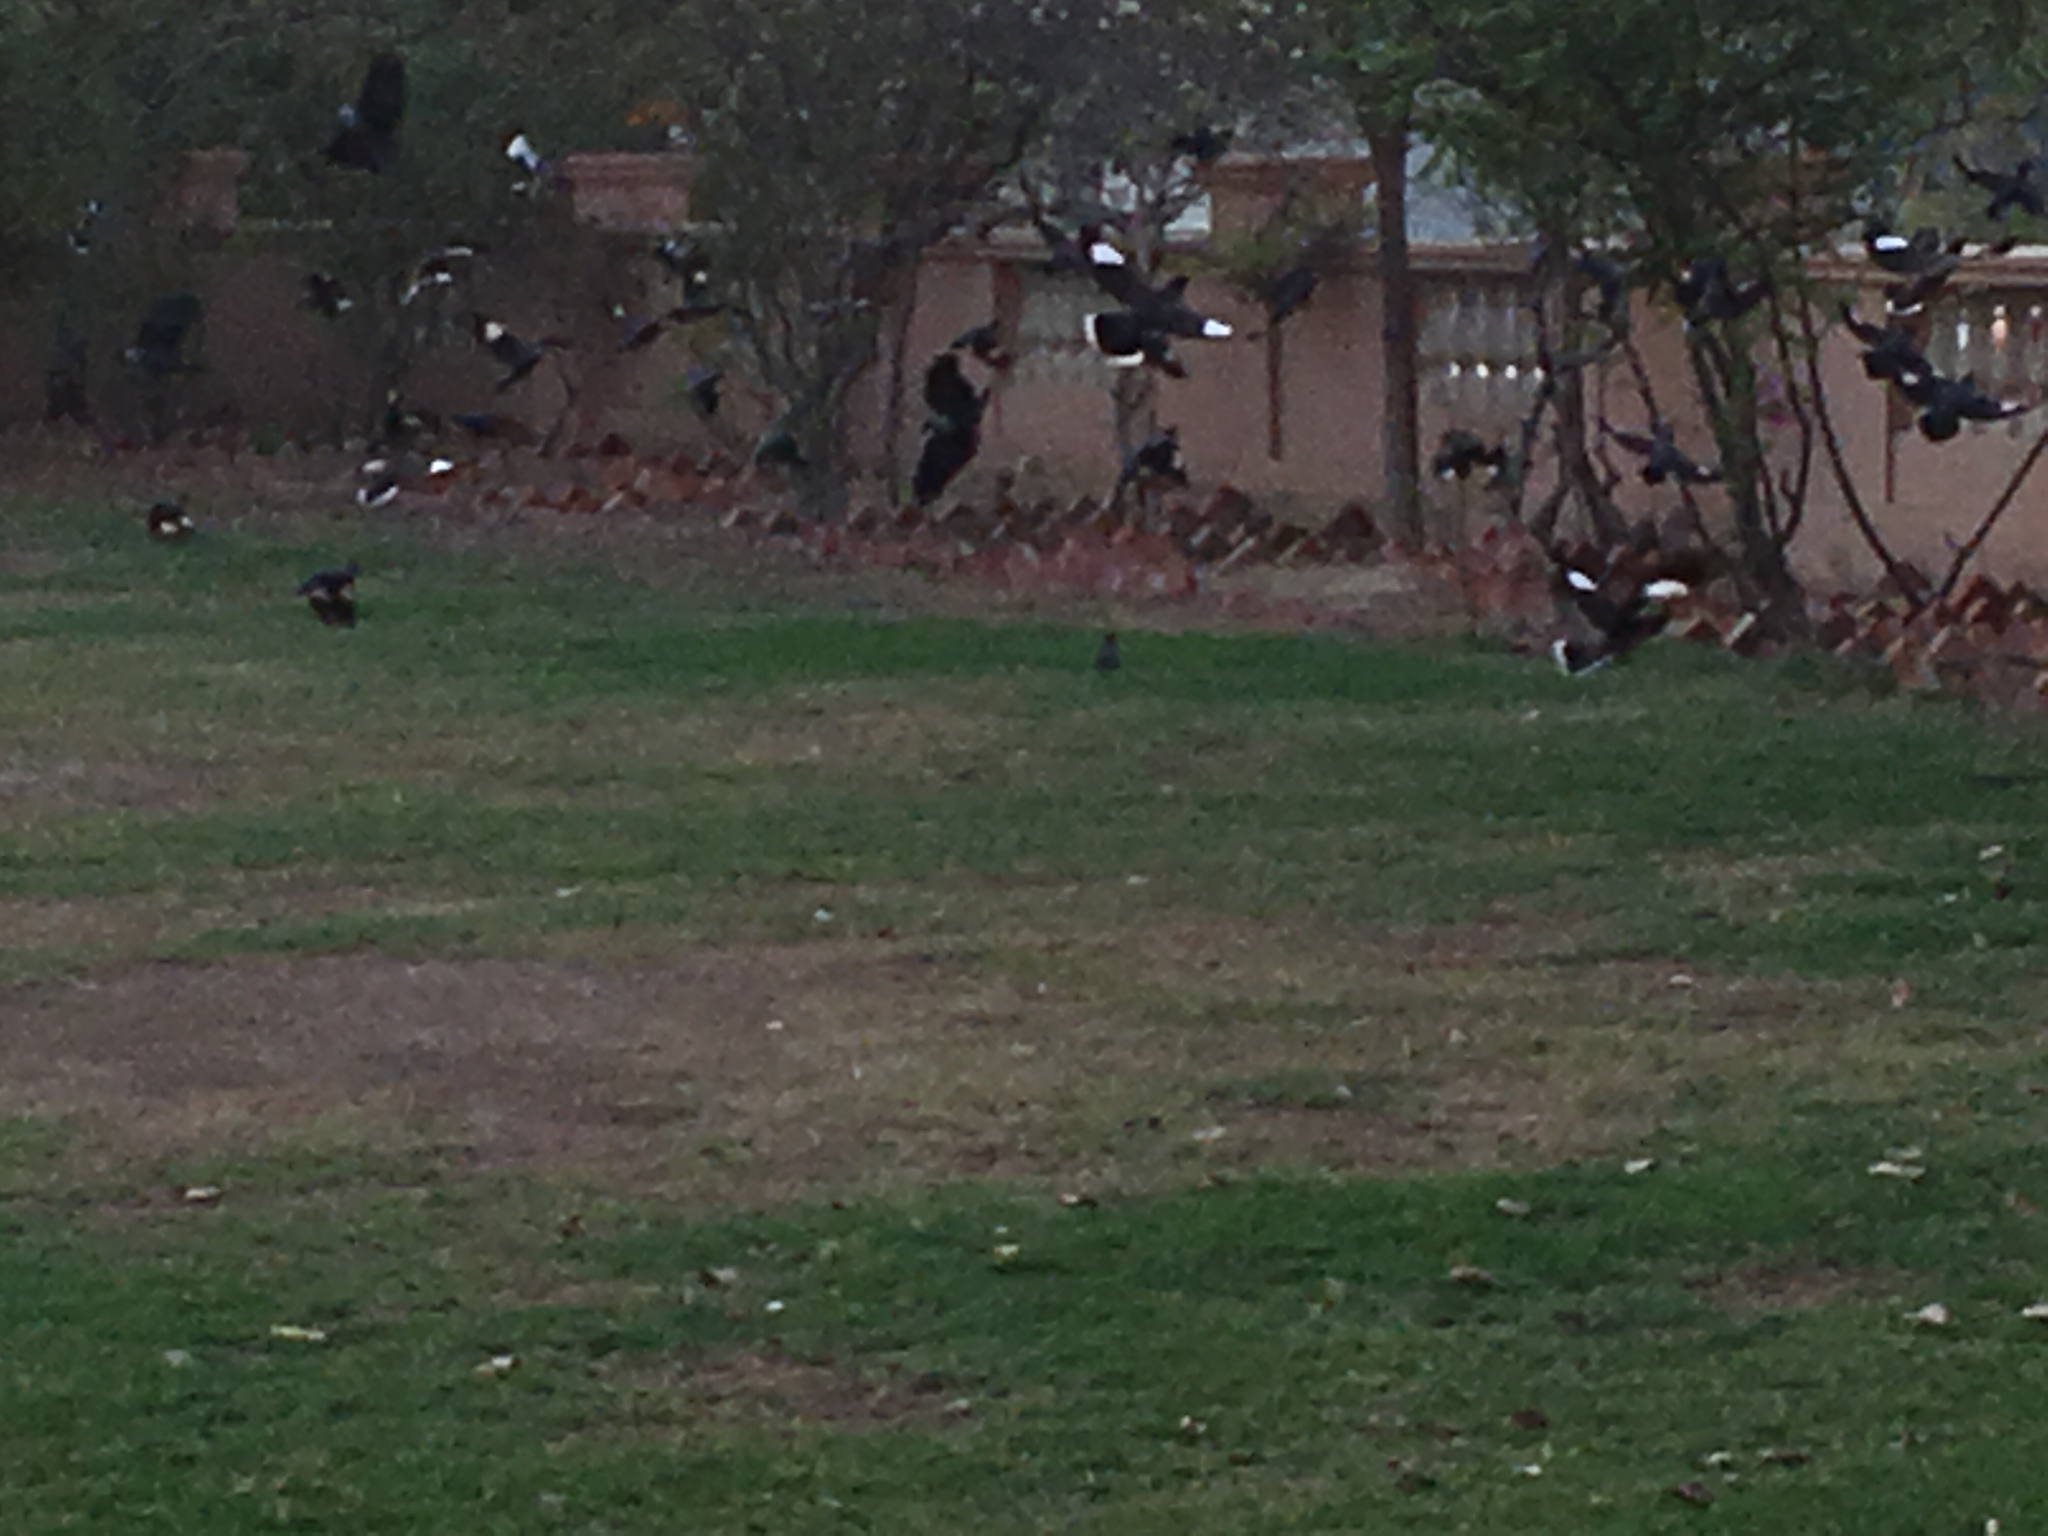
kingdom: Animalia
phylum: Chordata
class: Aves
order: Passeriformes
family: Sturnidae
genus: Acridotheres
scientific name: Acridotheres tristis
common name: Common myna
